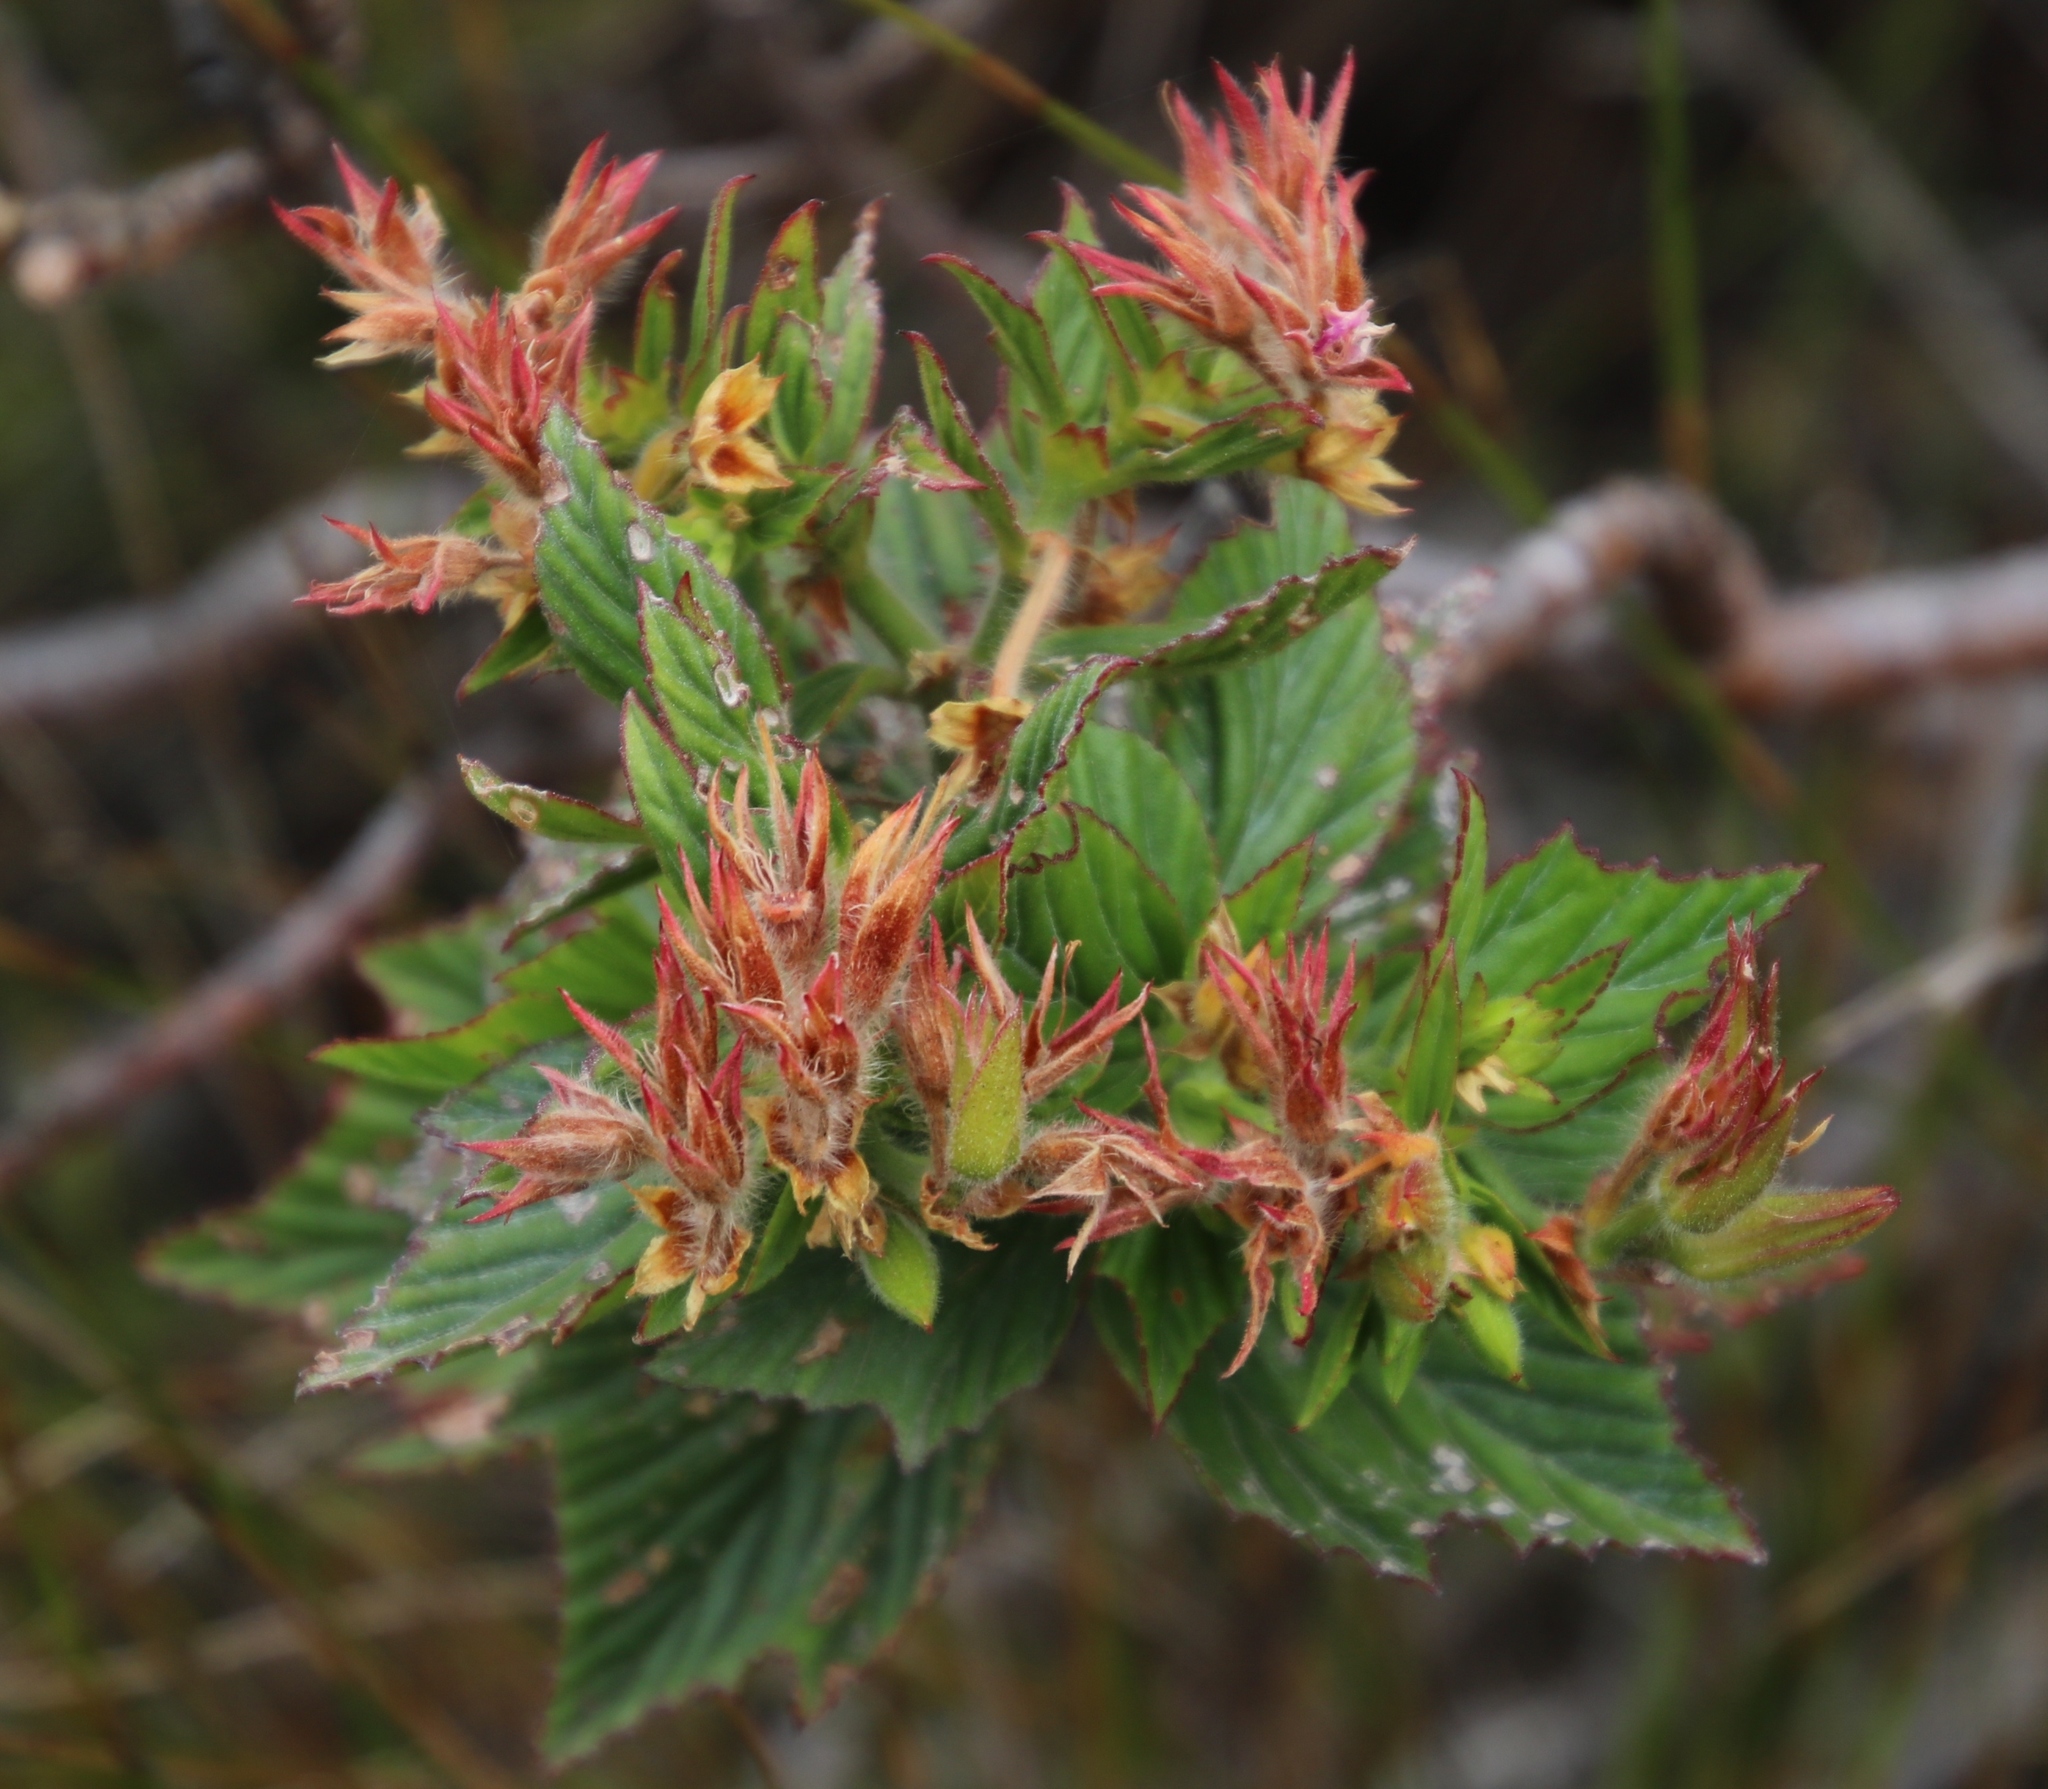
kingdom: Plantae
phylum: Tracheophyta
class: Magnoliopsida
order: Geraniales
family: Geraniaceae
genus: Pelargonium
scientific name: Pelargonium cucullatum
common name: Tree pelargonium
